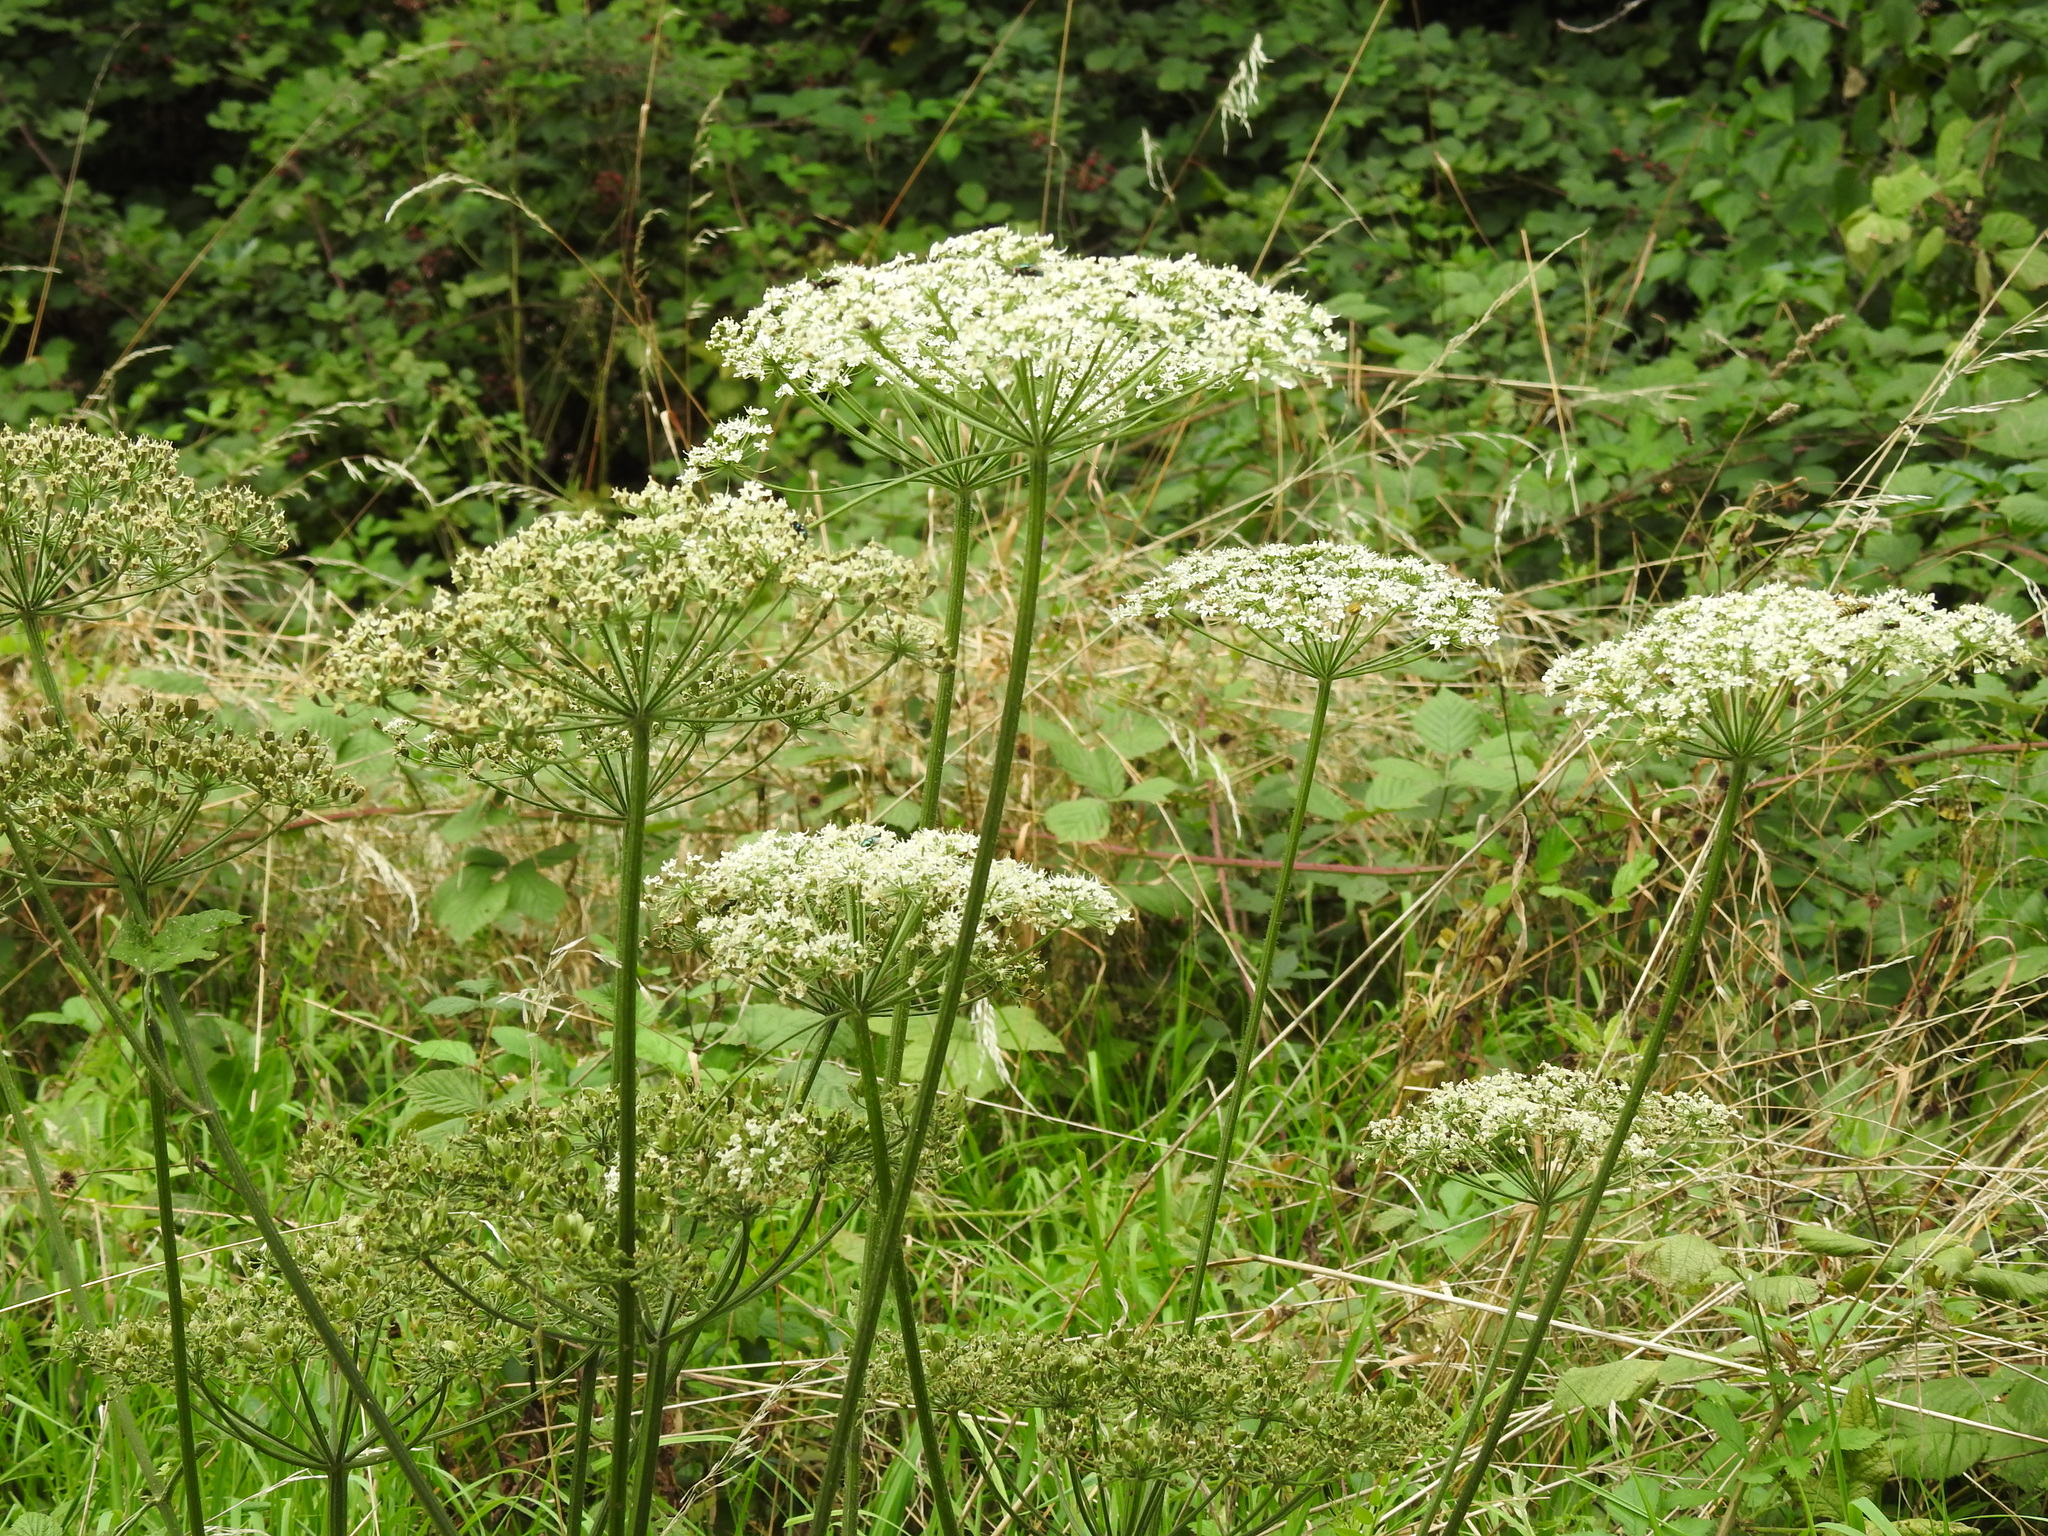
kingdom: Plantae
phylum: Tracheophyta
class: Magnoliopsida
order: Apiales
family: Apiaceae
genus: Heracleum
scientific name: Heracleum sphondylium
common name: Hogweed
